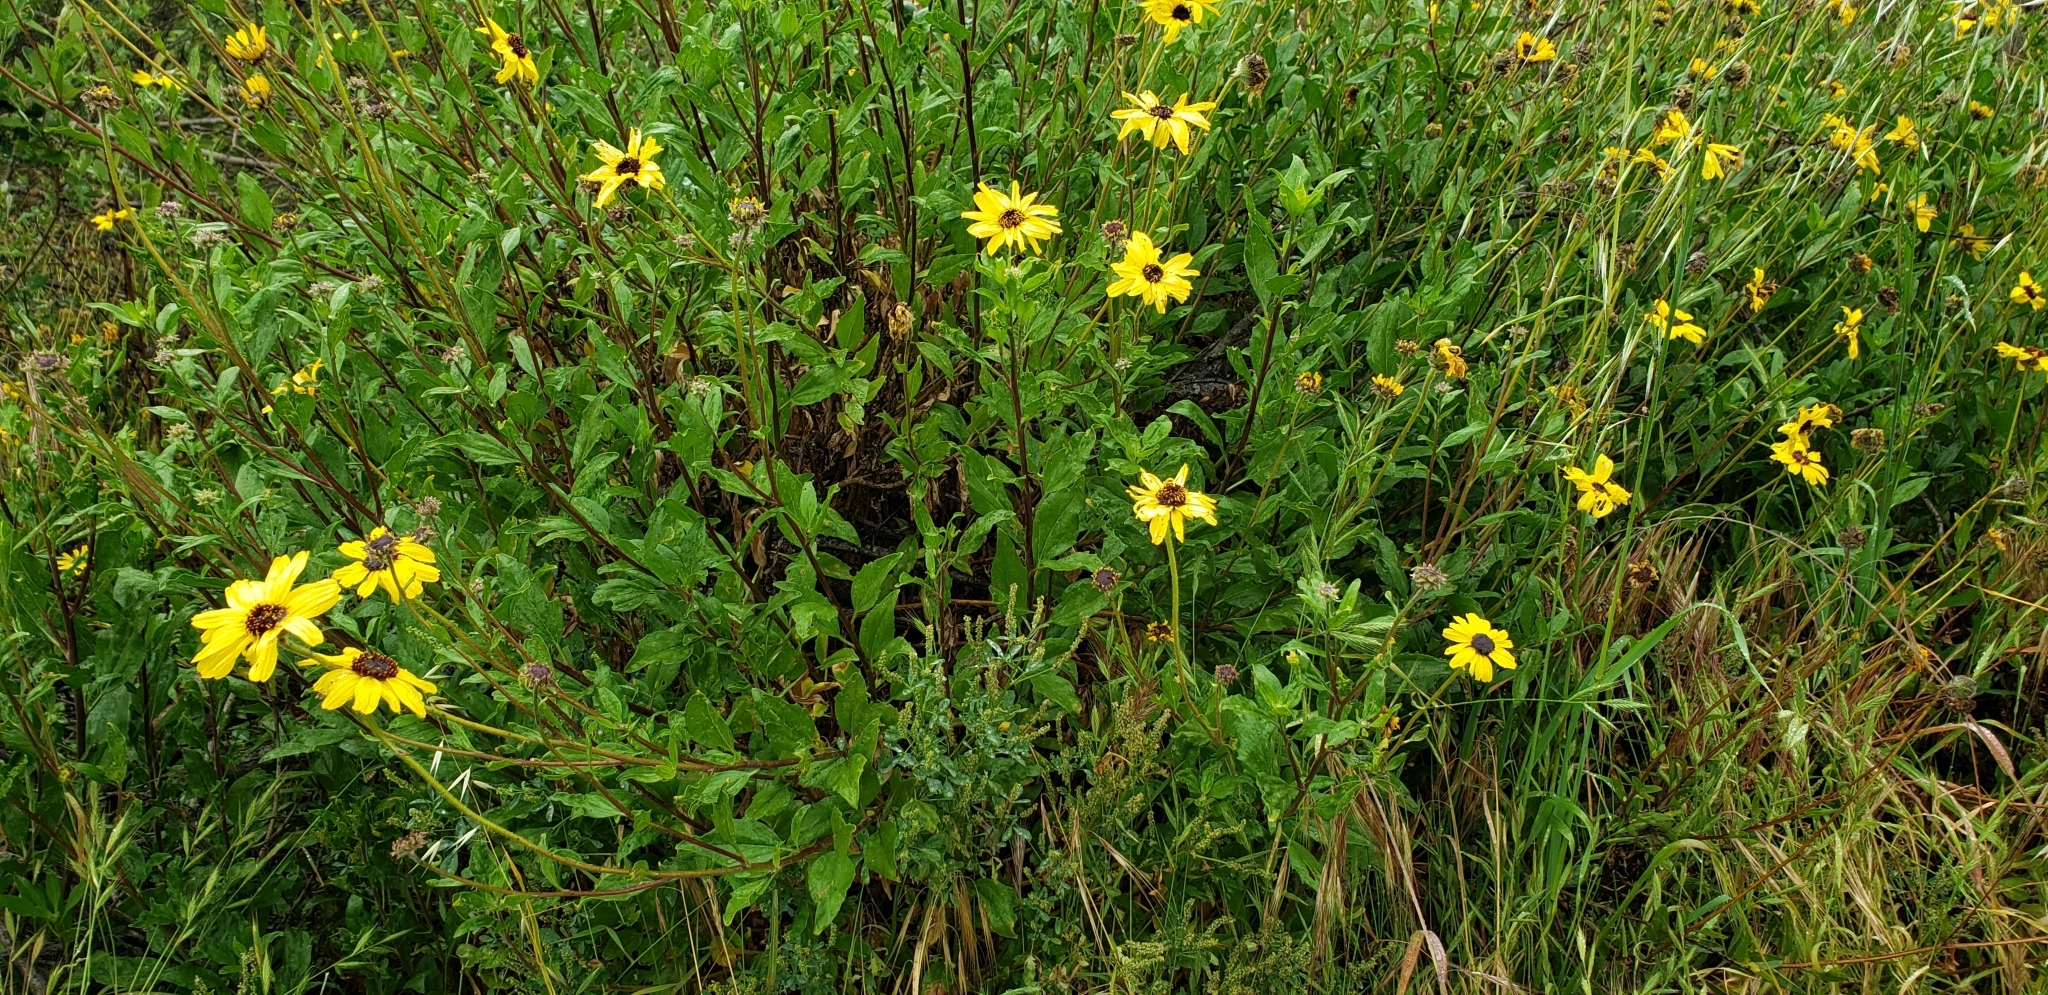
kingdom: Plantae
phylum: Tracheophyta
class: Magnoliopsida
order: Asterales
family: Asteraceae
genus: Encelia
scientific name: Encelia californica
